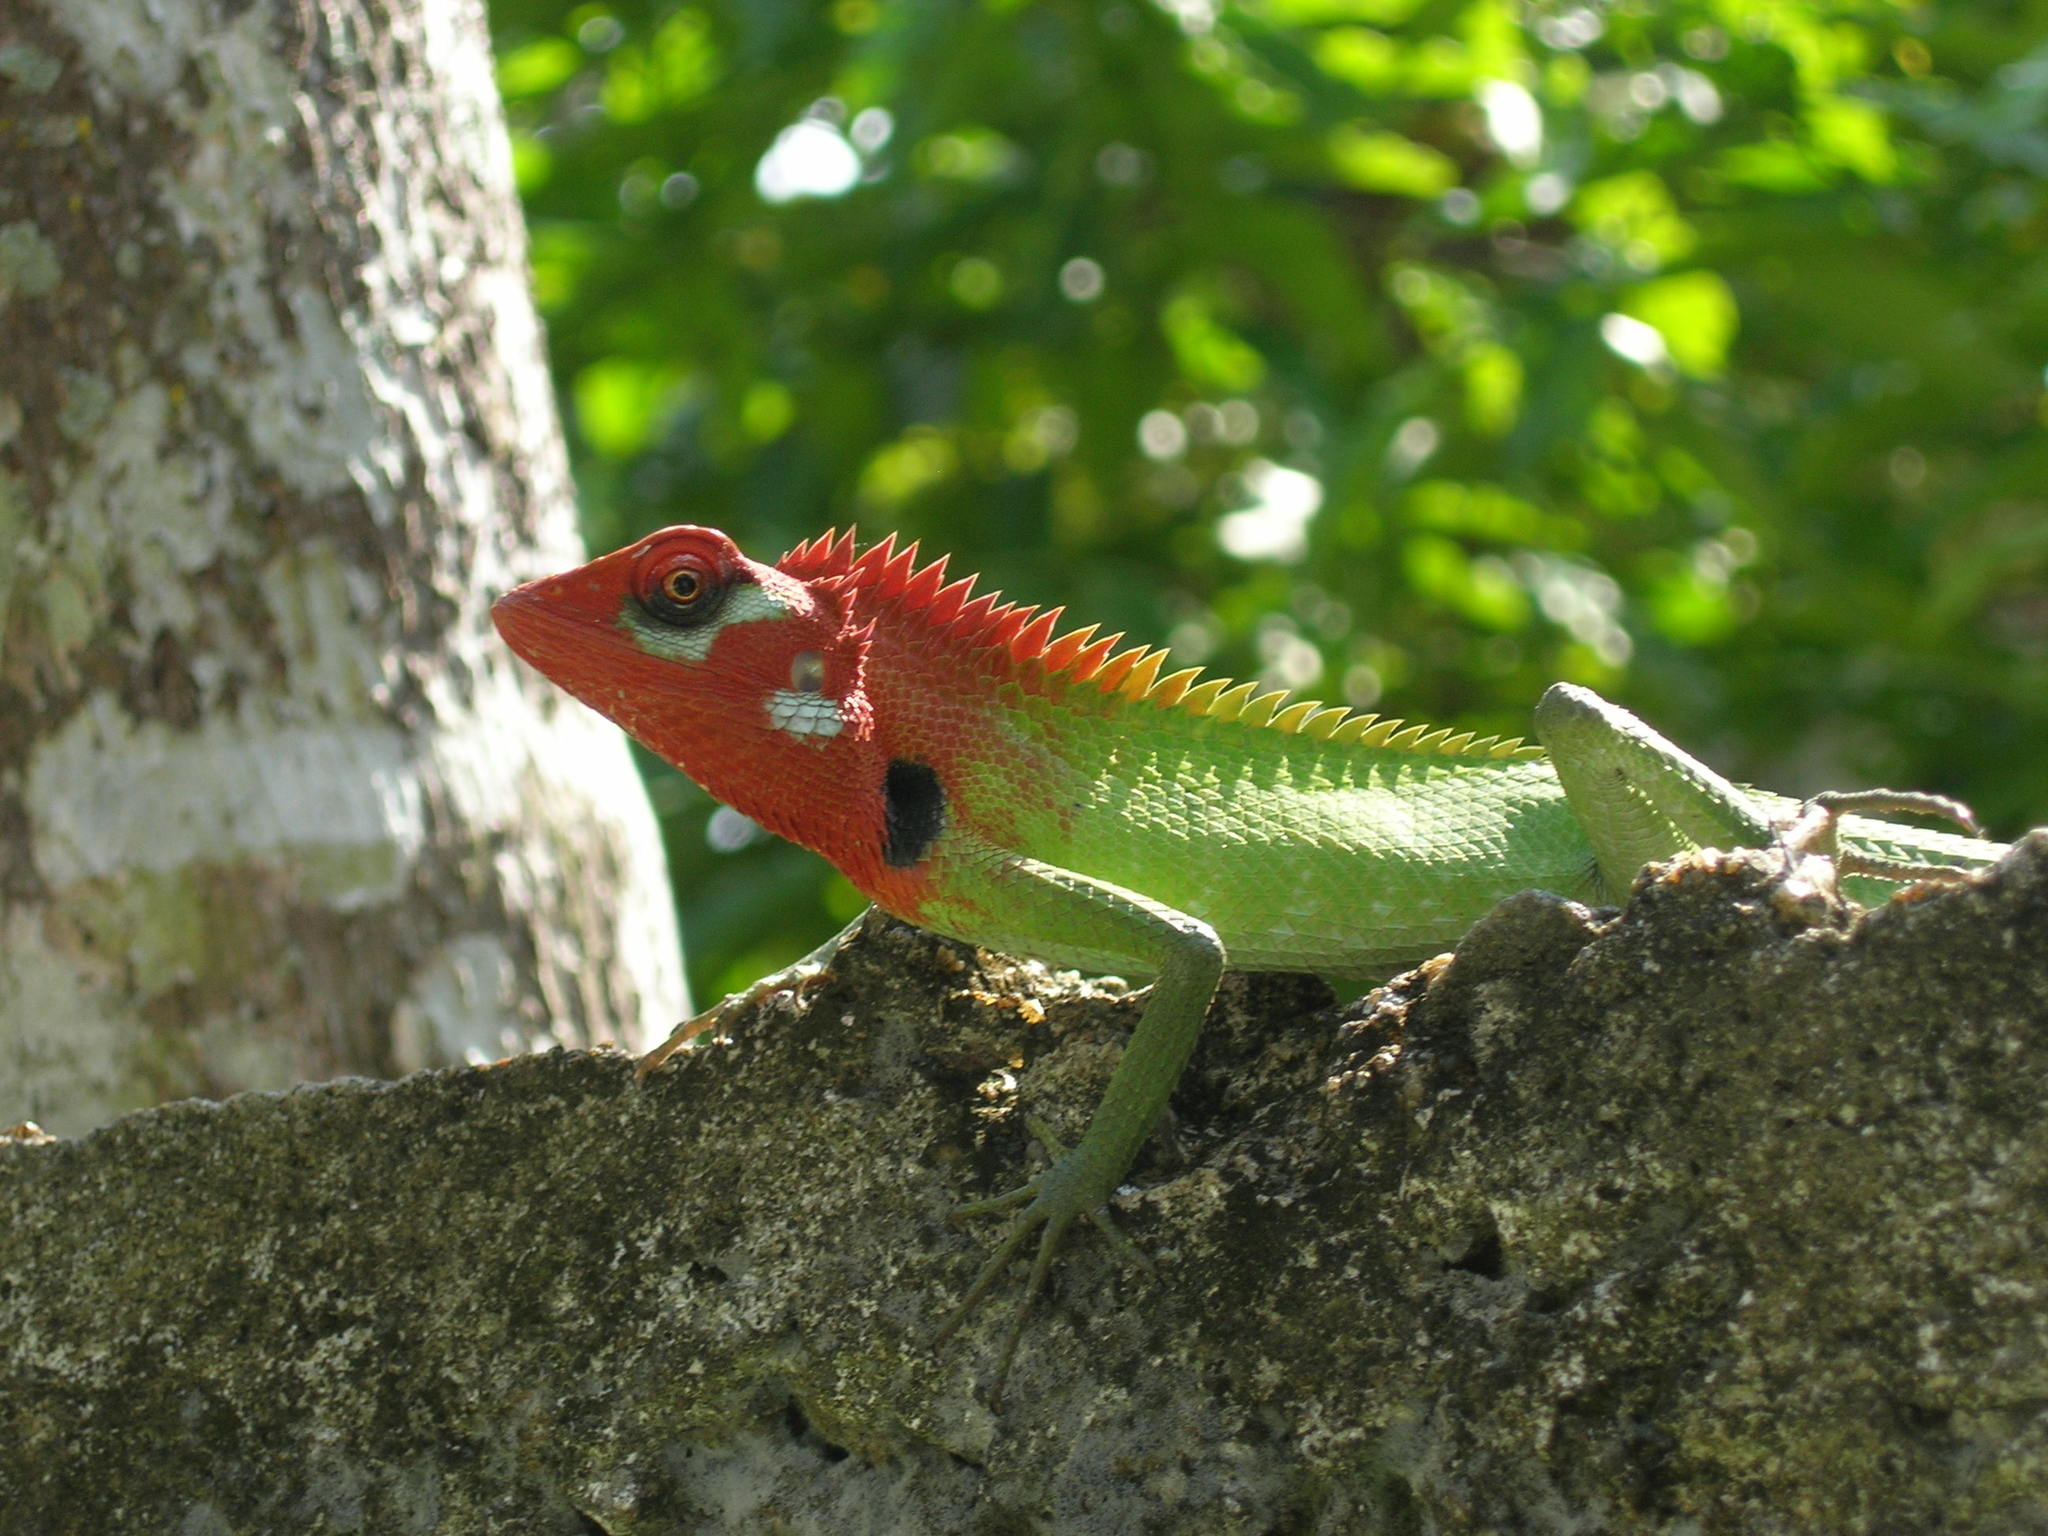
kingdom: Animalia
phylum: Chordata
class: Squamata
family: Agamidae
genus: Calotes
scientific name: Calotes calotes
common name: Common green forest lizard
